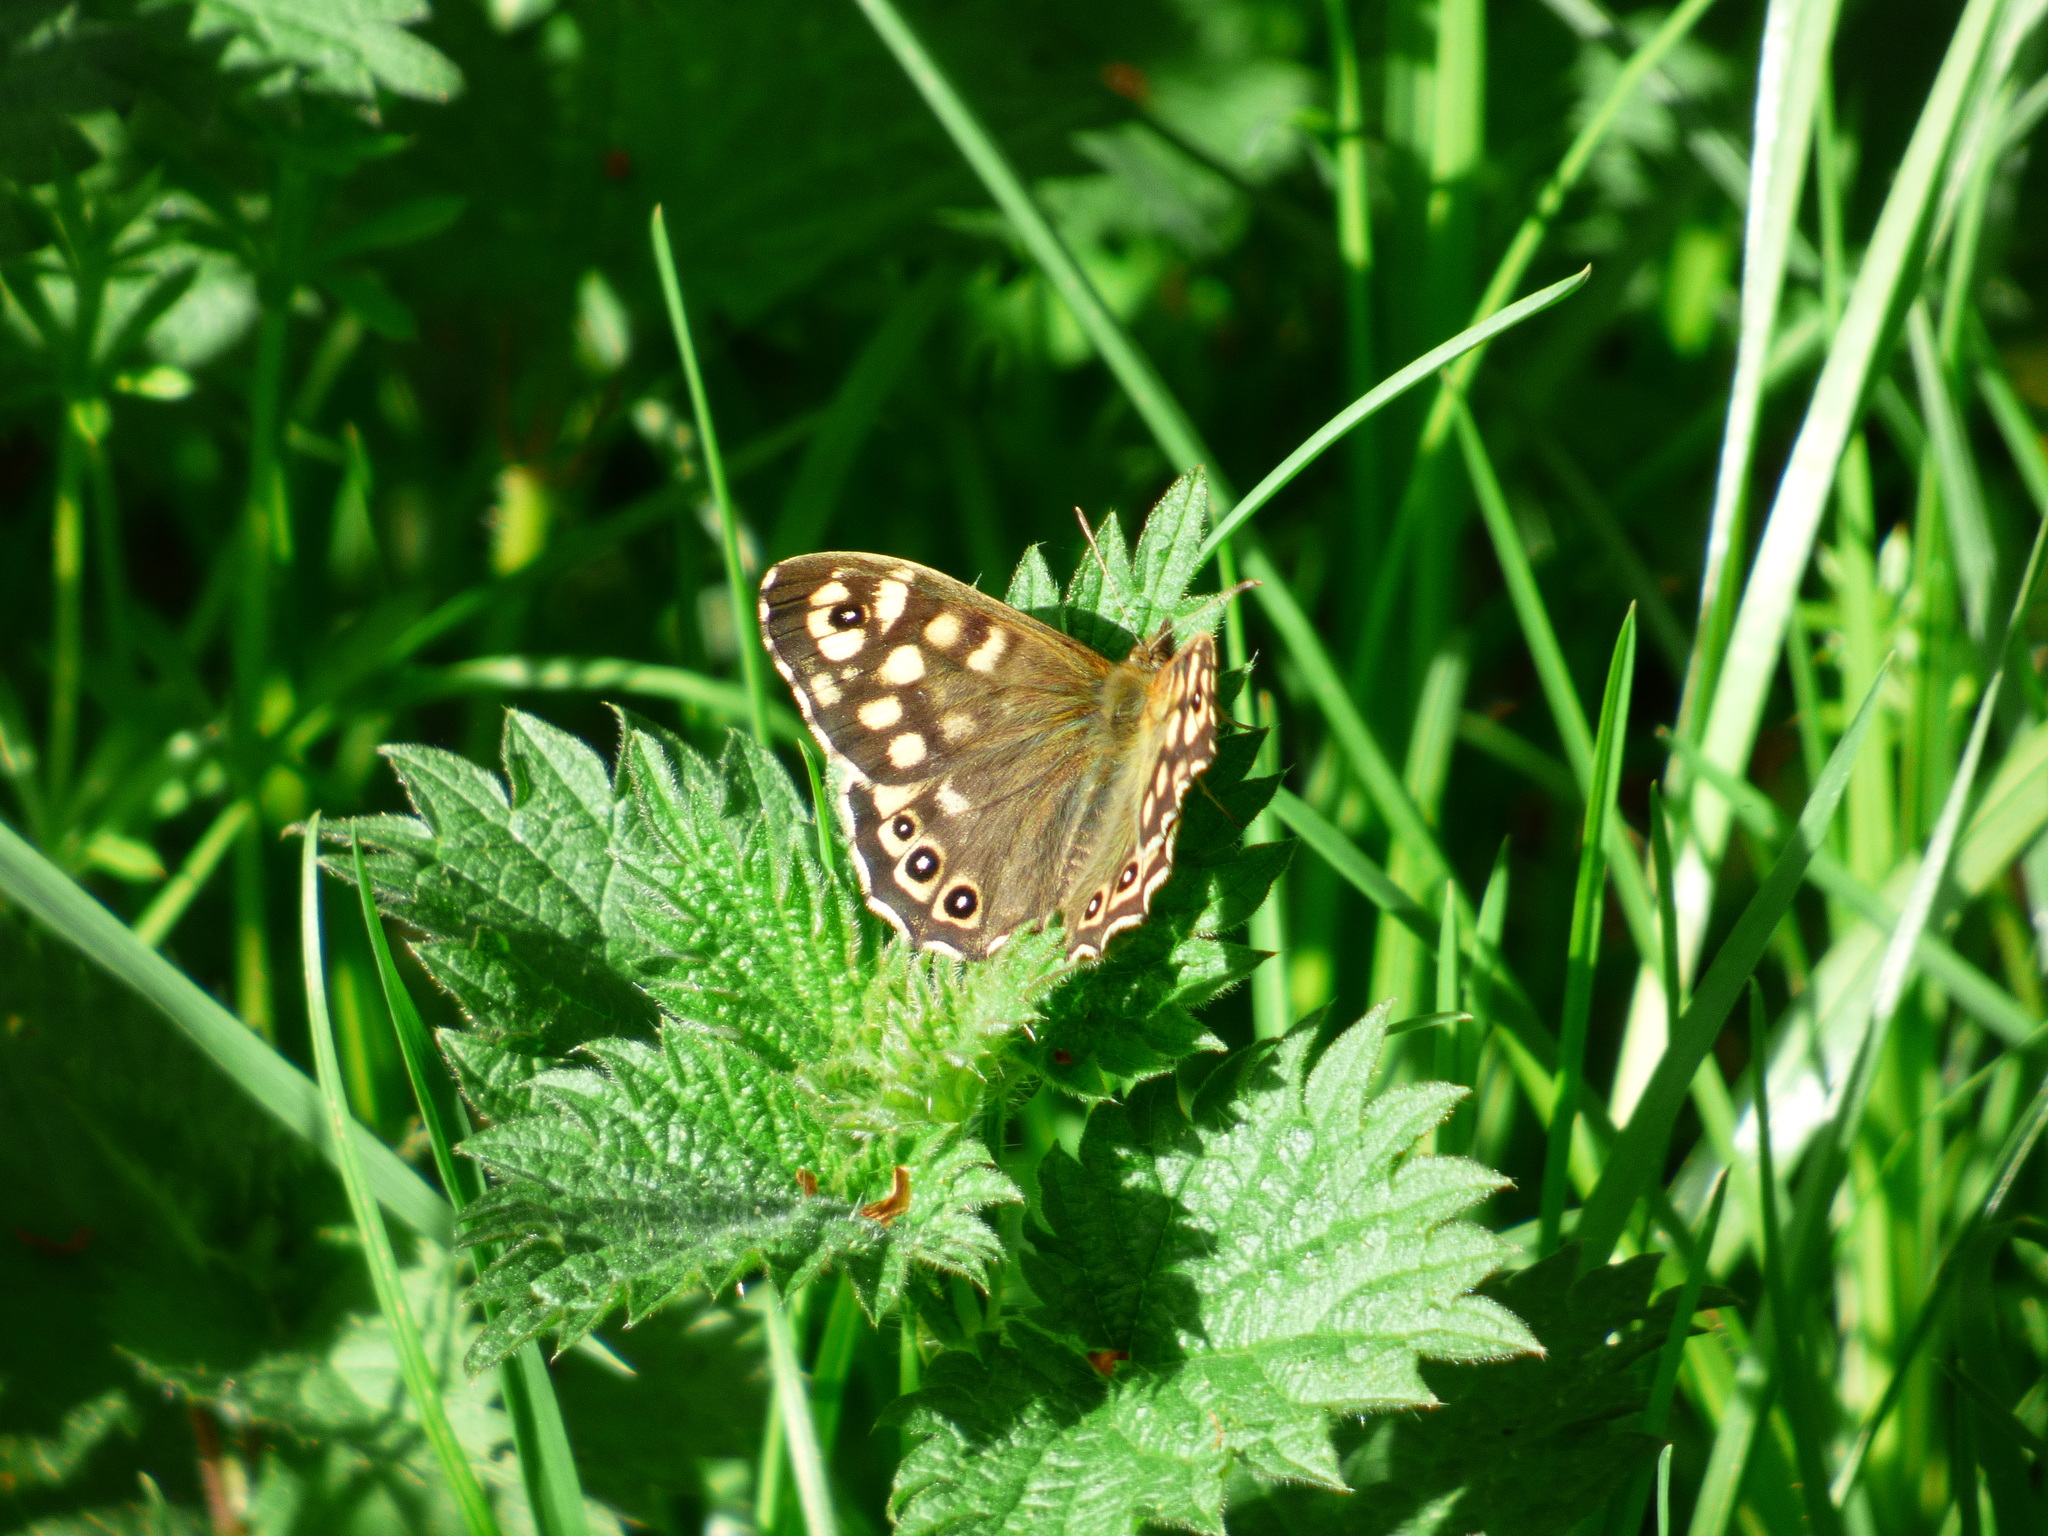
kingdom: Animalia
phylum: Arthropoda
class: Insecta
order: Lepidoptera
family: Nymphalidae
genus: Pararge
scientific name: Pararge aegeria
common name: Speckled wood
